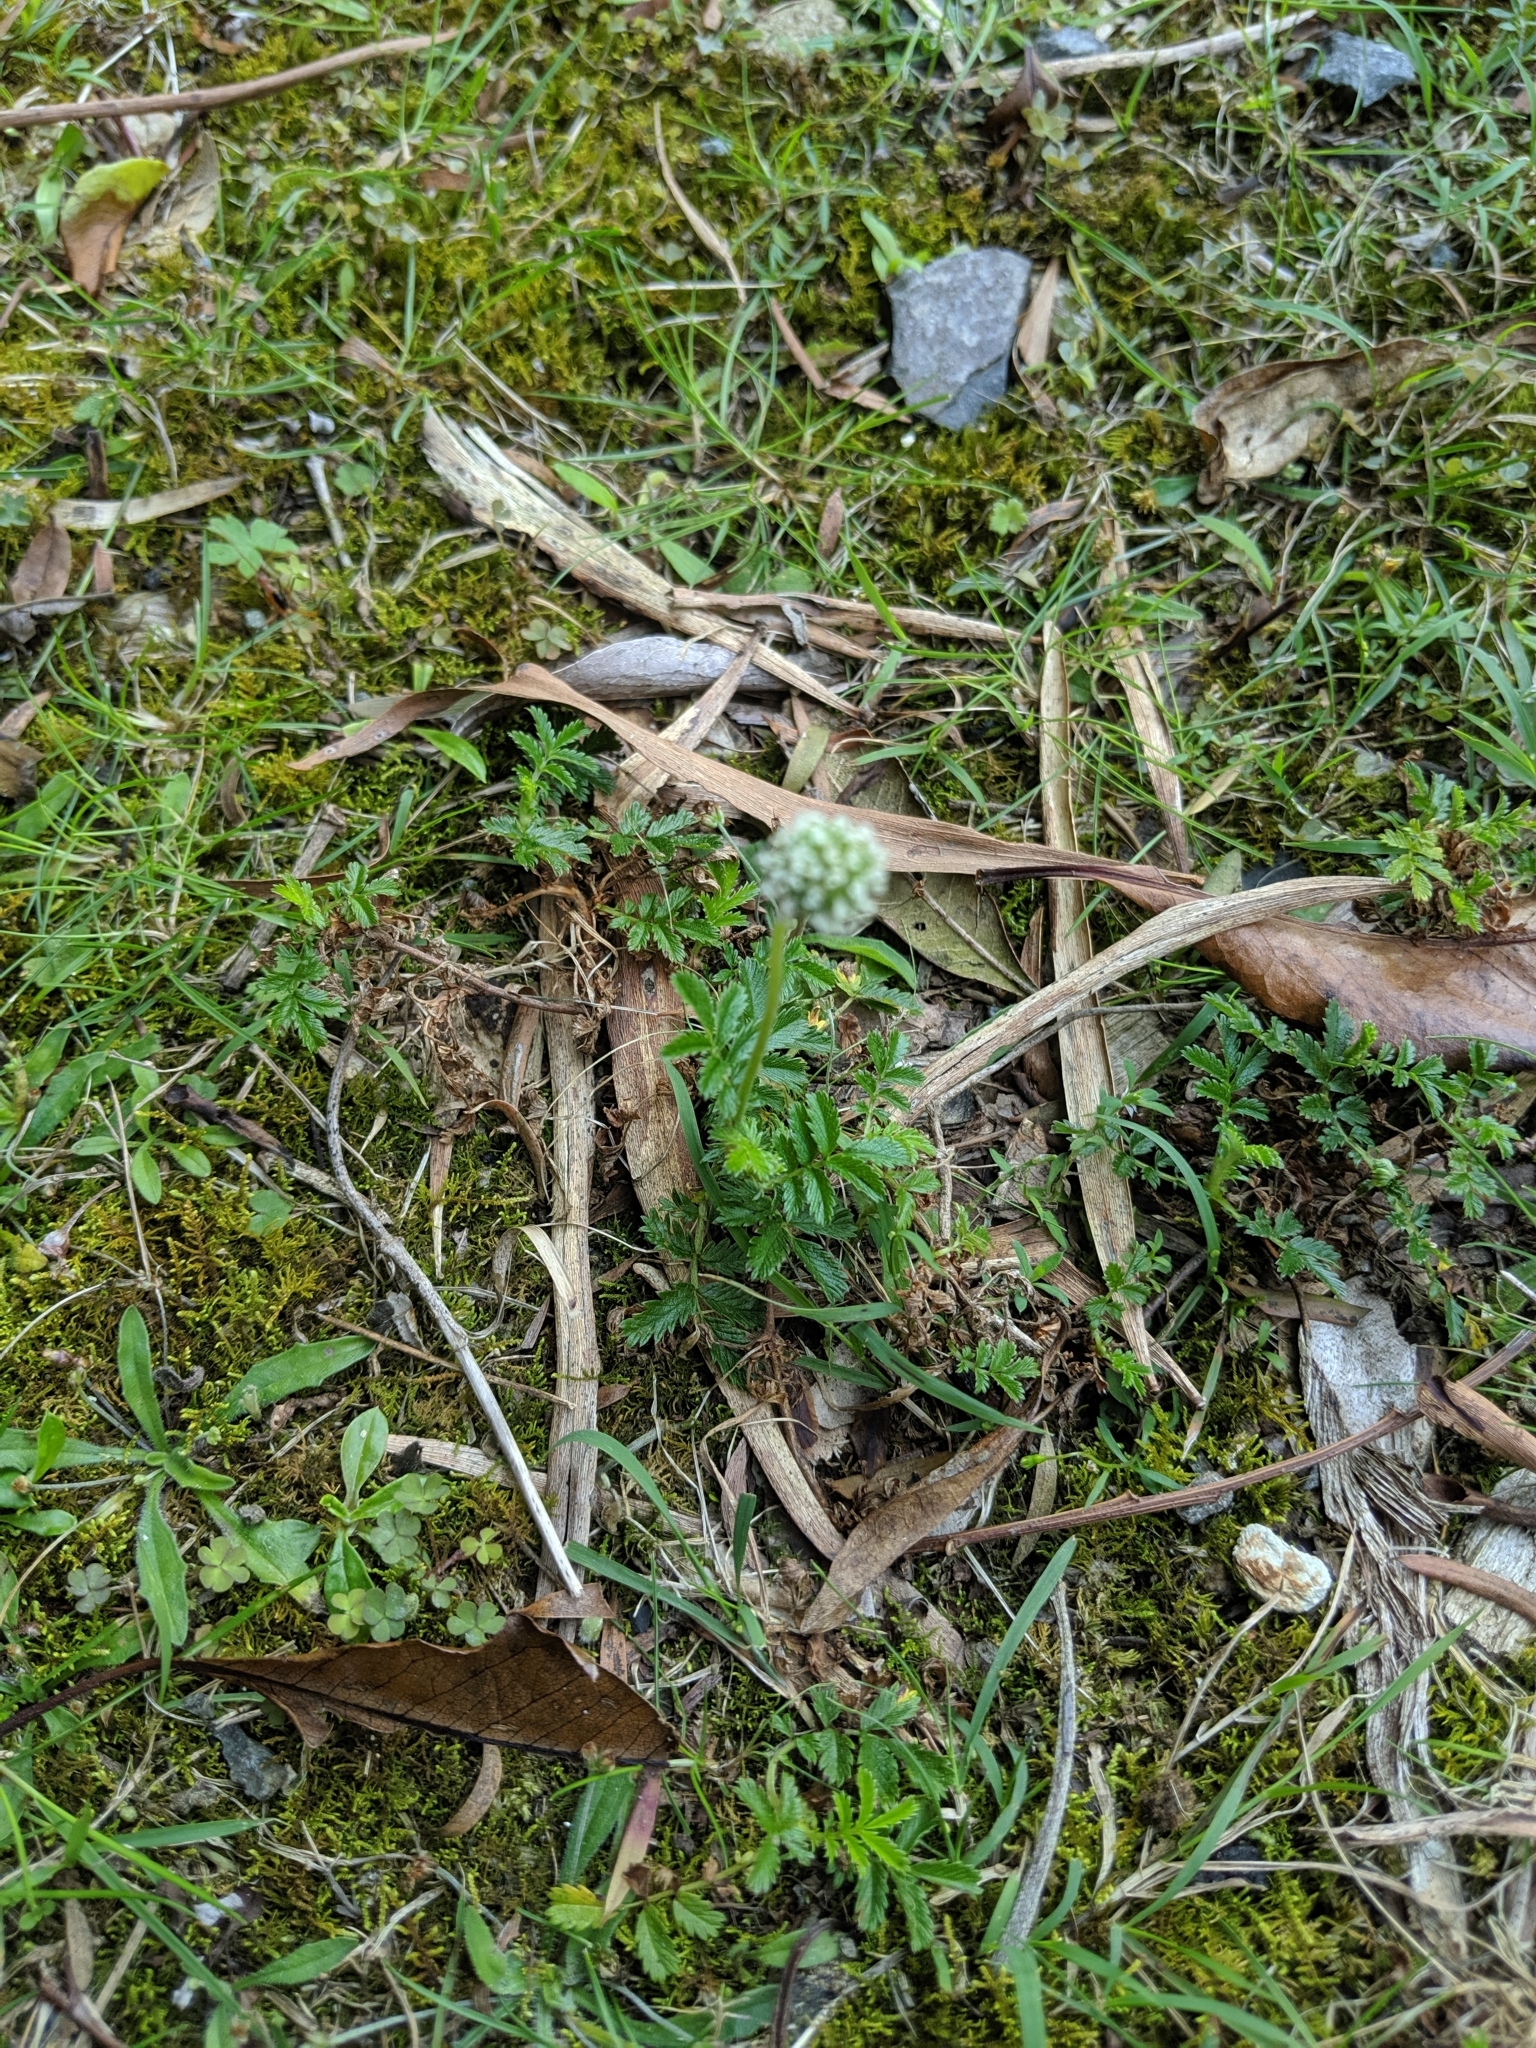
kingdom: Plantae
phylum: Tracheophyta
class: Magnoliopsida
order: Rosales
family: Rosaceae
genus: Acaena
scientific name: Acaena novae-zelandiae
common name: Pirri-pirri-bur
